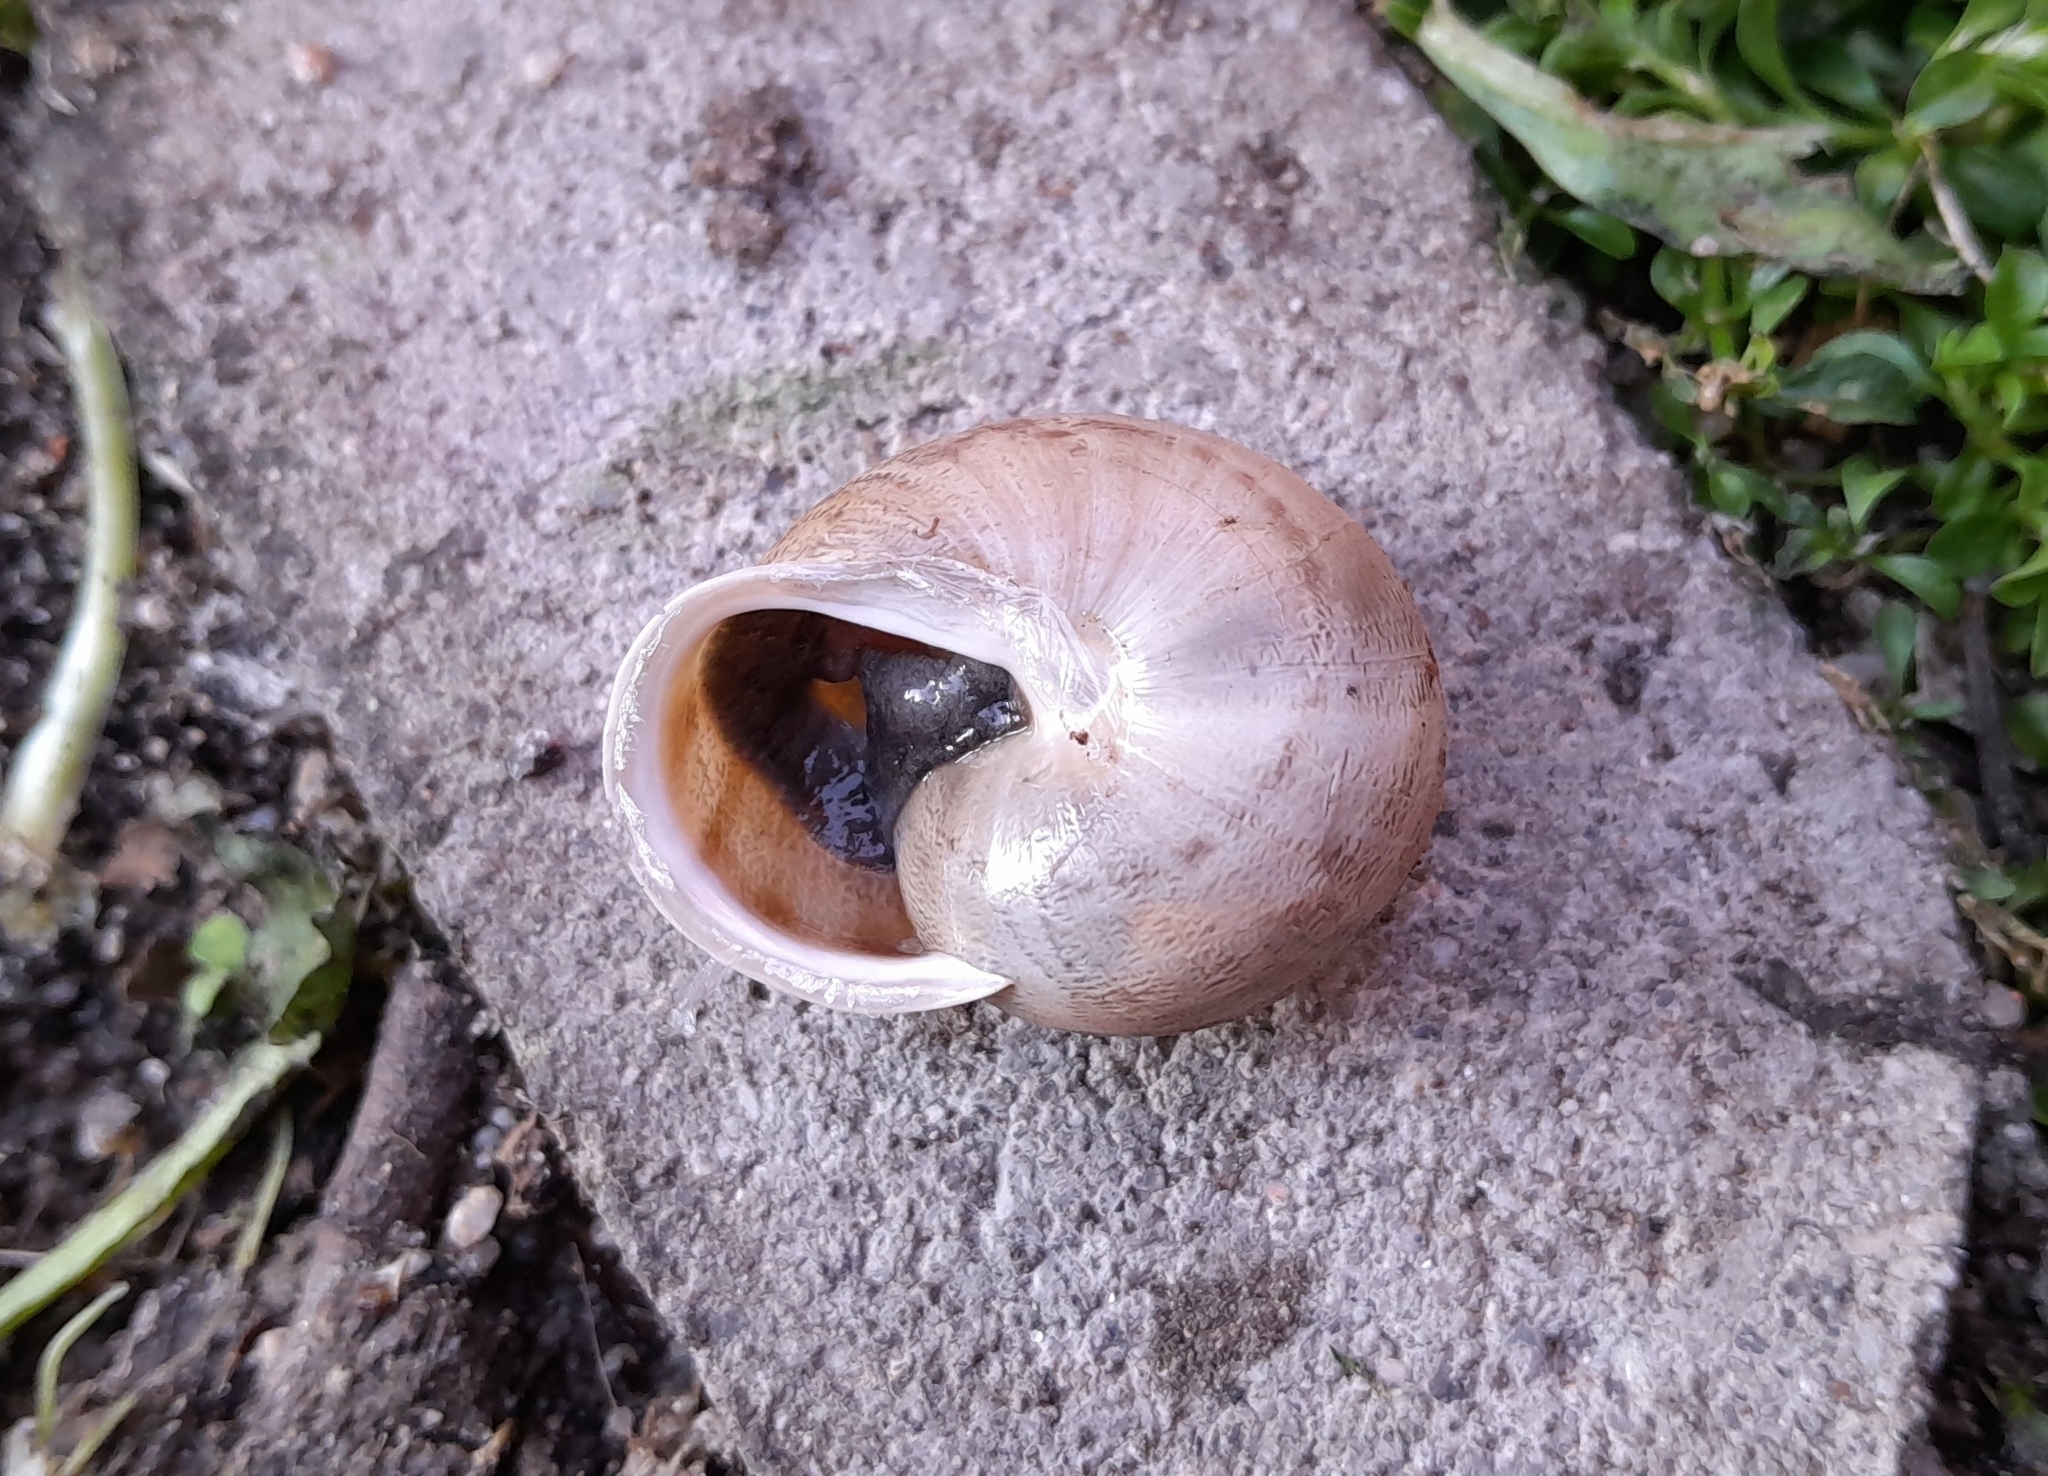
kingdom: Animalia
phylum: Mollusca
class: Gastropoda
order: Stylommatophora
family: Helicidae
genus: Eobania
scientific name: Eobania vermiculata
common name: Chocolateband snail
